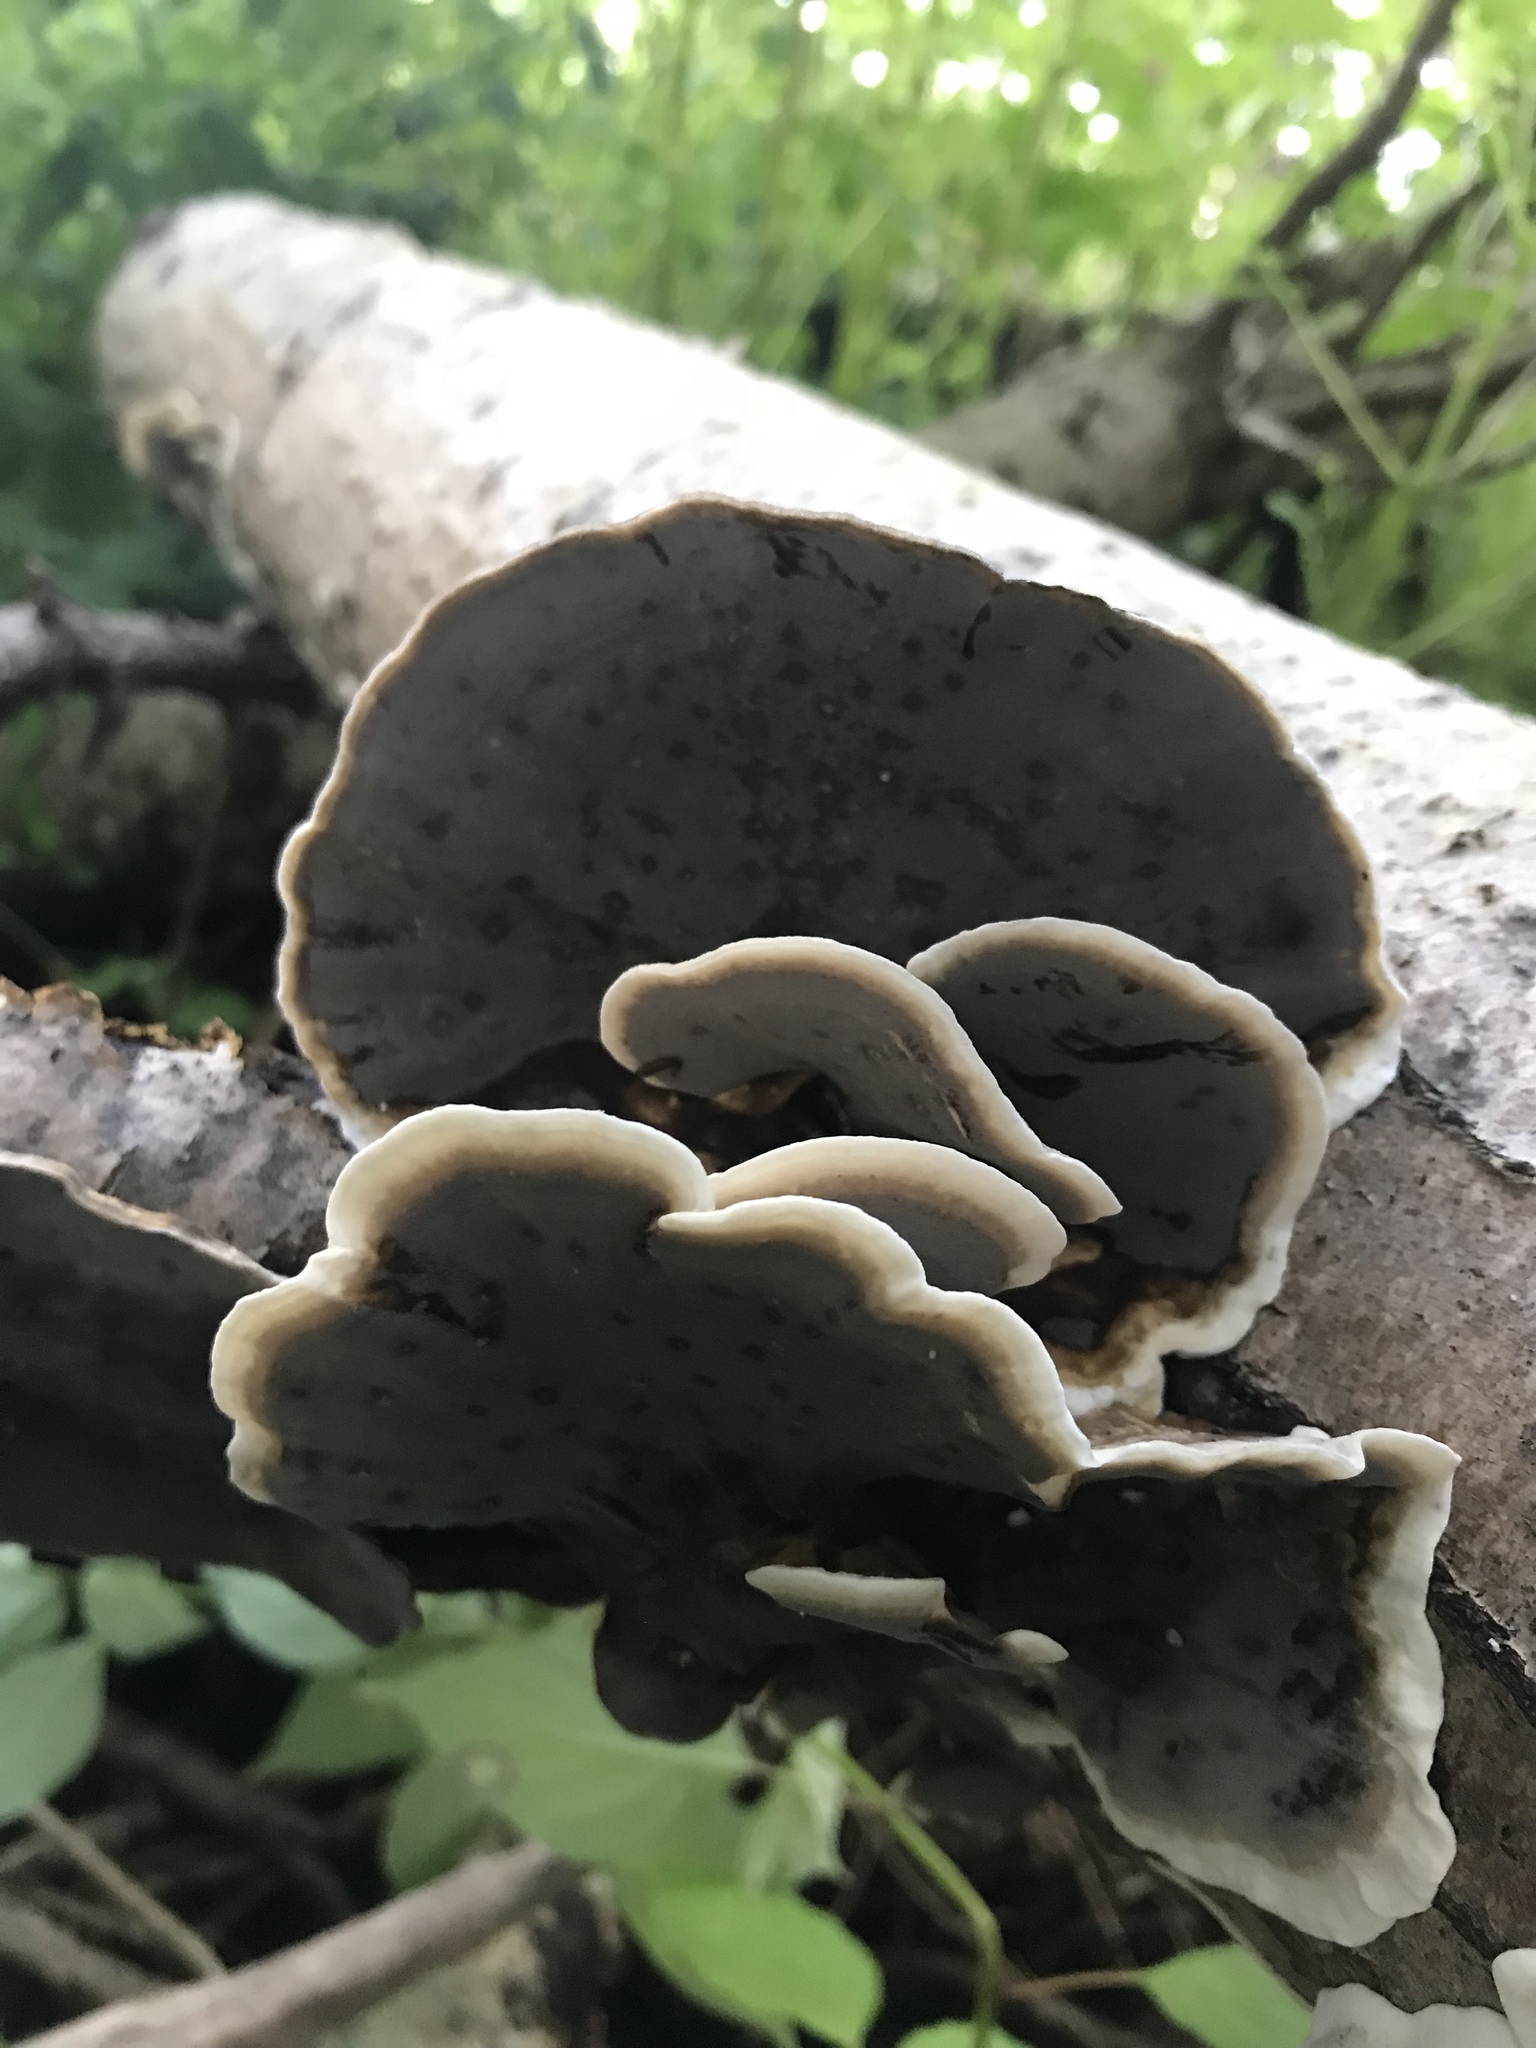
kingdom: Fungi
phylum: Basidiomycota
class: Agaricomycetes
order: Polyporales
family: Phanerochaetaceae
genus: Bjerkandera
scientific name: Bjerkandera adusta
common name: Smoky bracket
